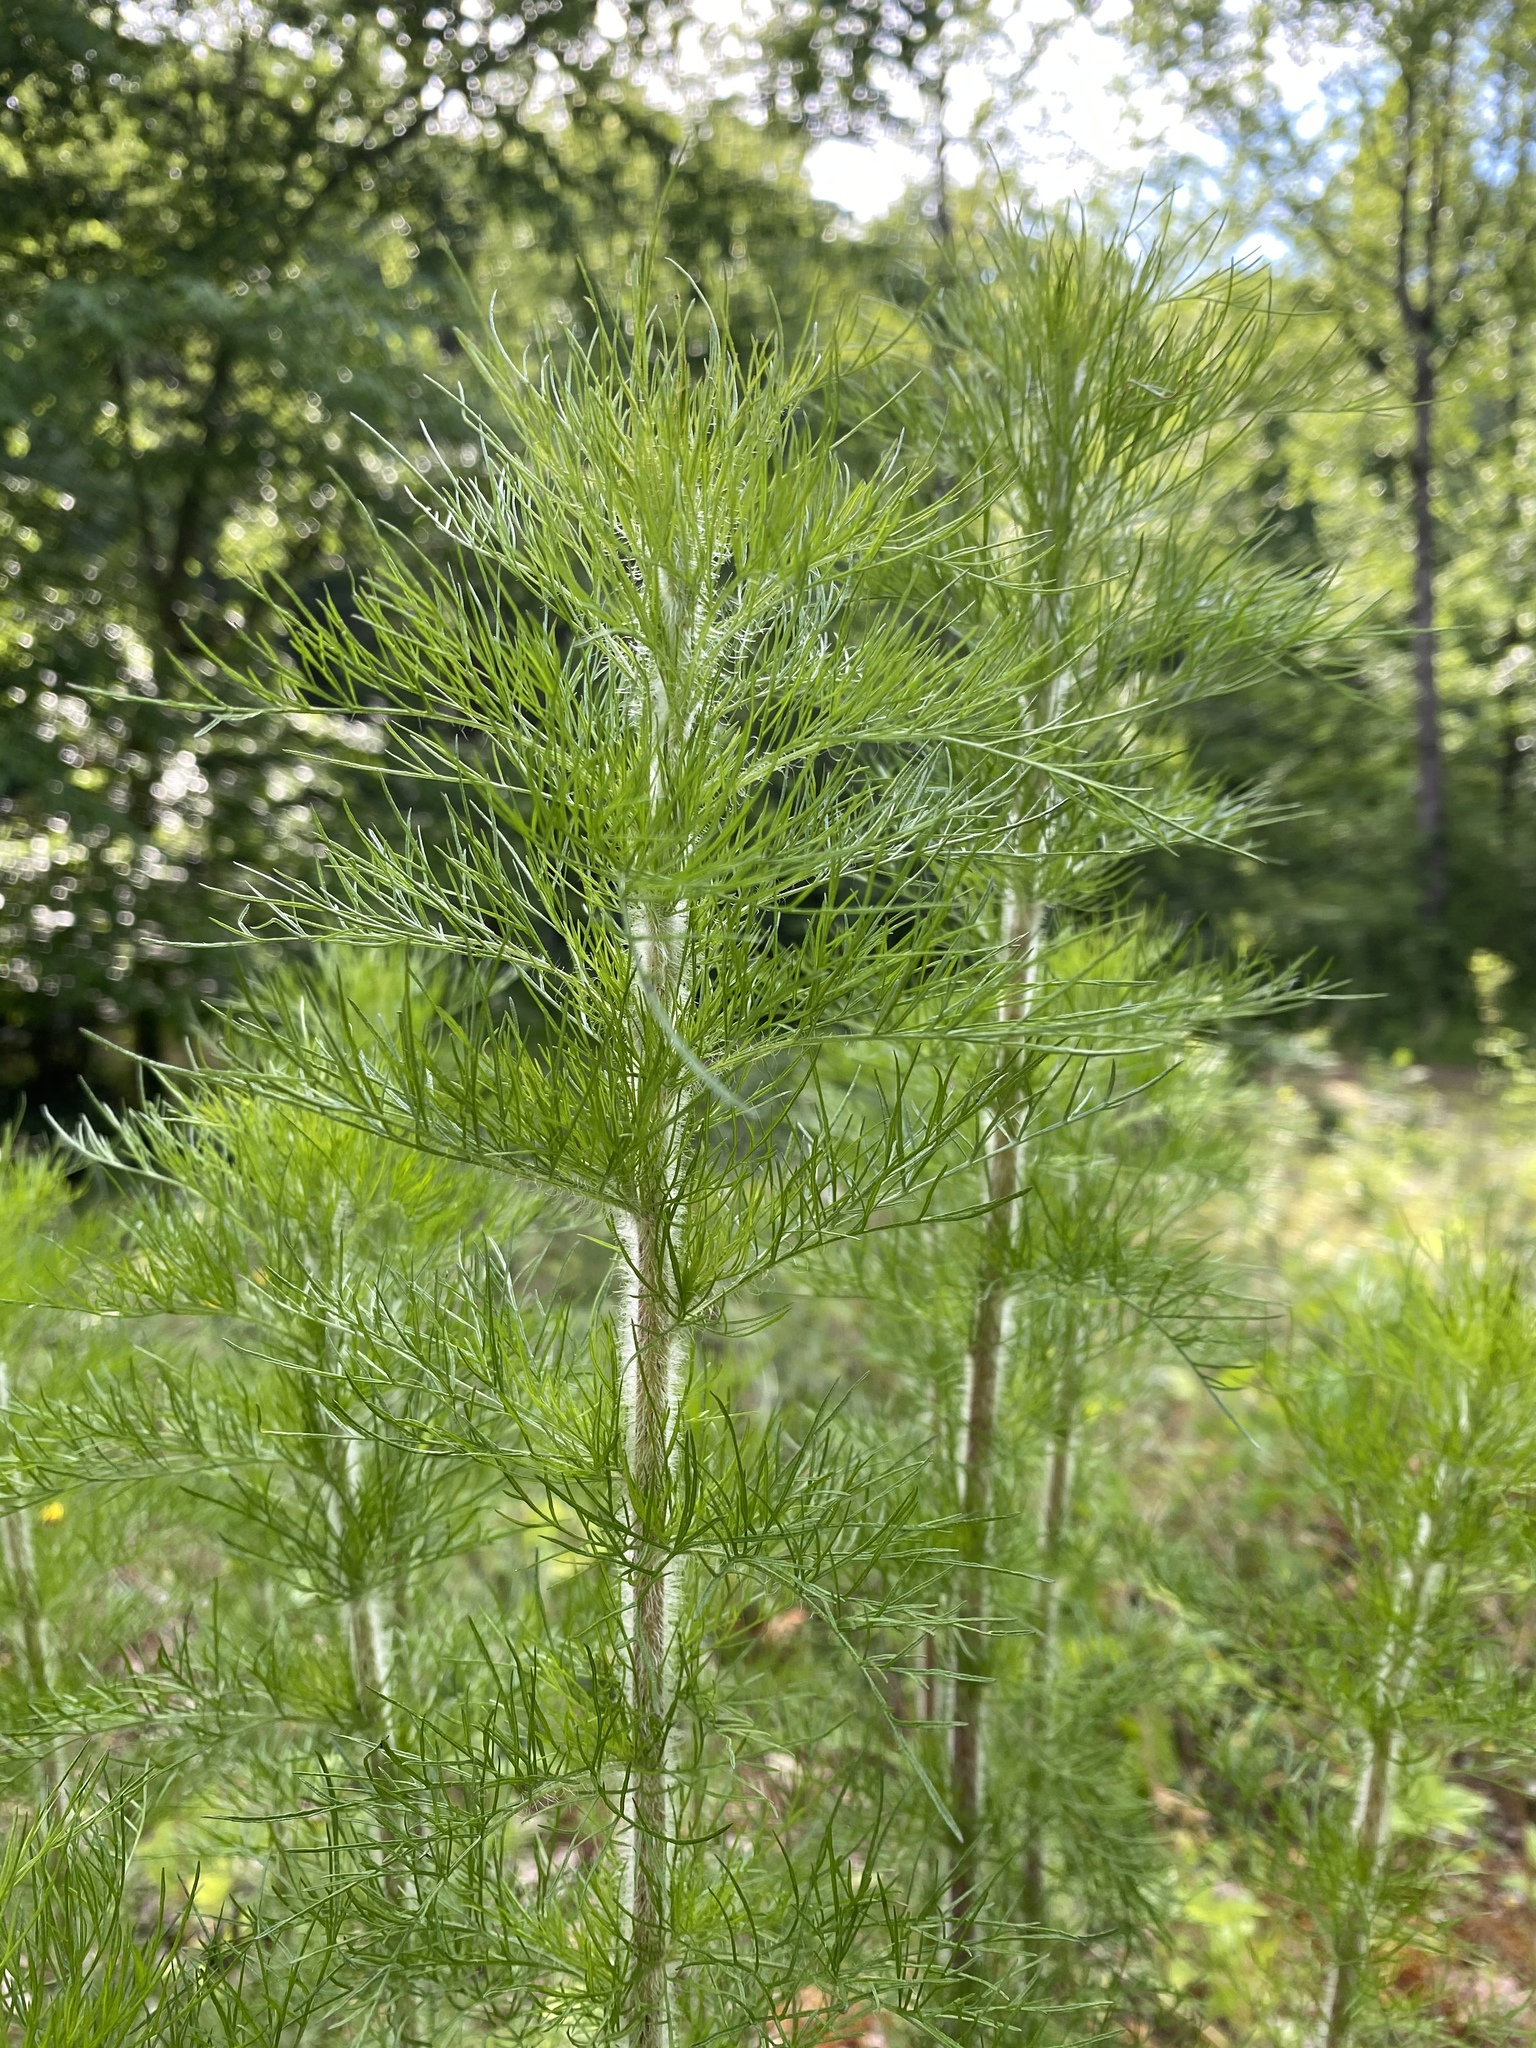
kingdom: Plantae
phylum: Tracheophyta
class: Magnoliopsida
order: Asterales
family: Asteraceae
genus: Eupatorium
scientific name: Eupatorium capillifolium
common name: Dog-fennel
